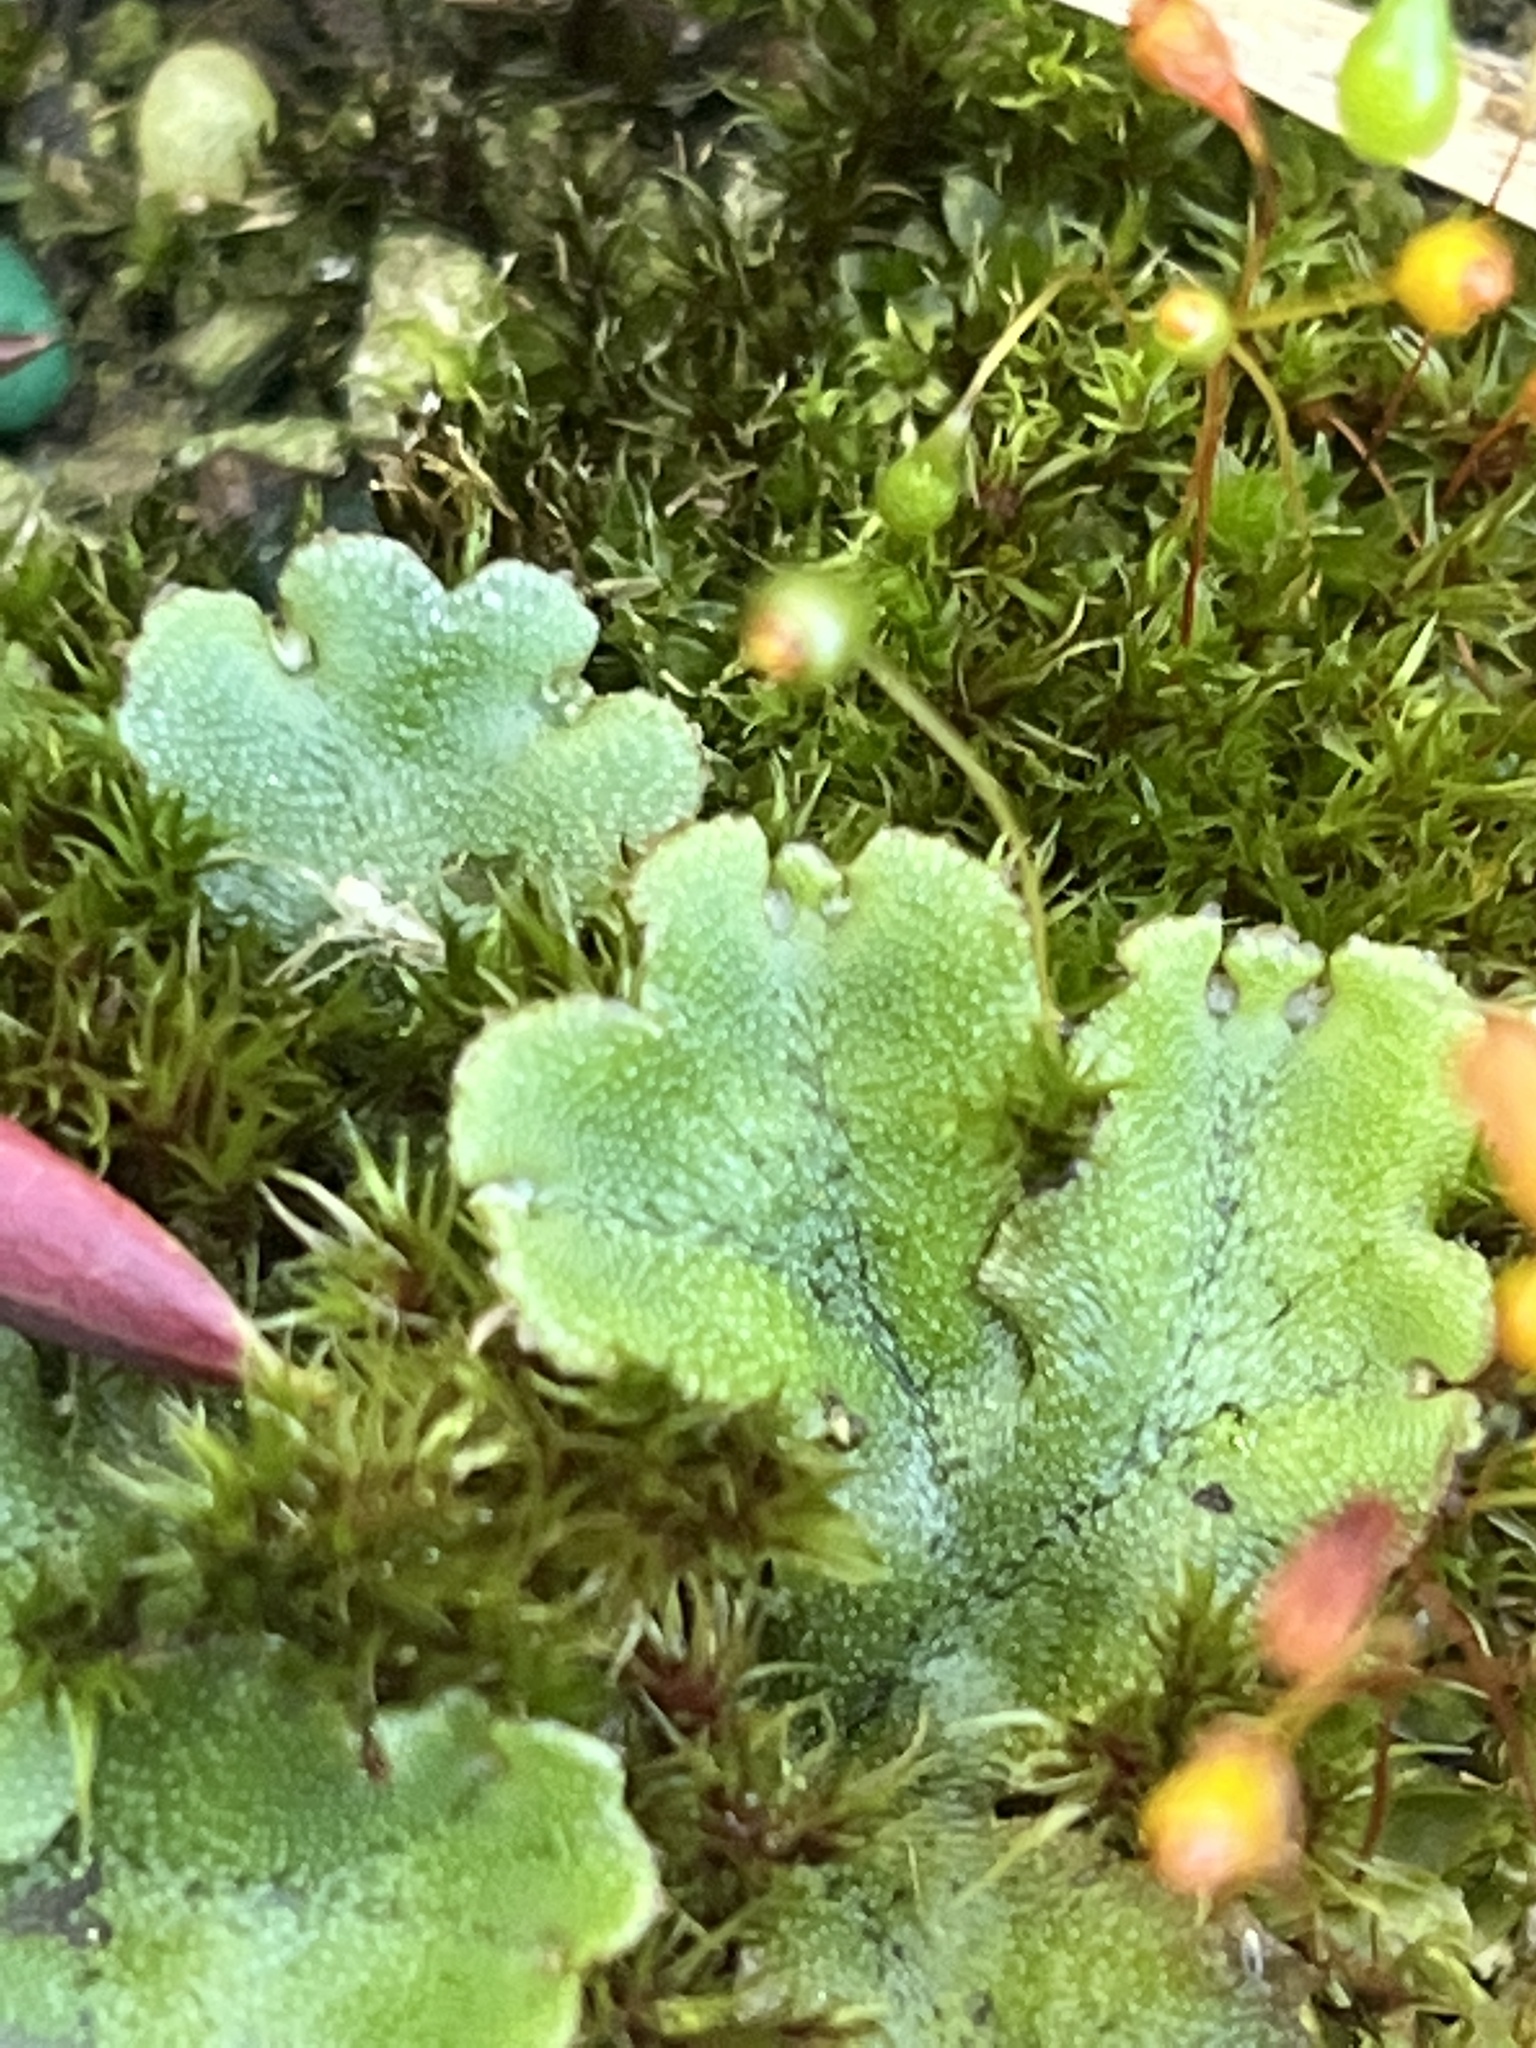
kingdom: Plantae
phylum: Marchantiophyta
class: Marchantiopsida
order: Marchantiales
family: Marchantiaceae
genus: Marchantia
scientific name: Marchantia polymorpha
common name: Common liverwort
